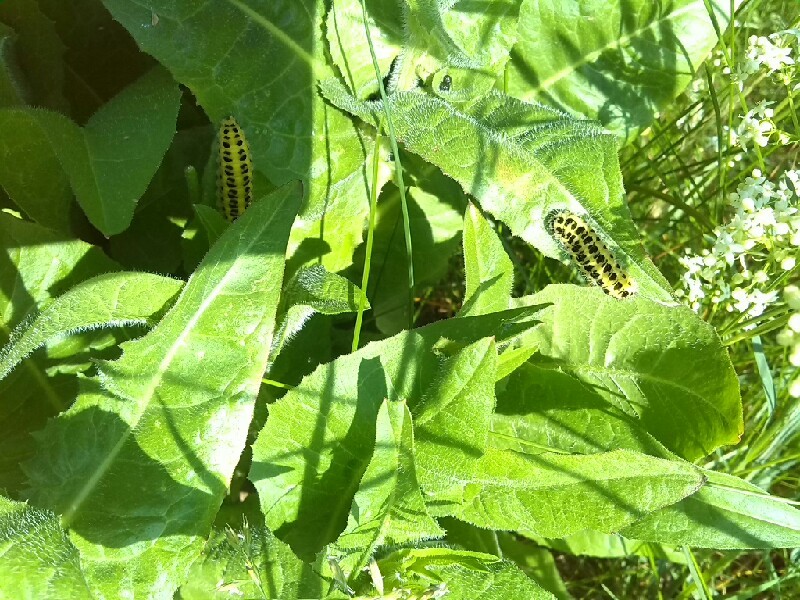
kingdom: Animalia
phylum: Arthropoda
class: Insecta
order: Lepidoptera
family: Zygaenidae
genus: Zygaena
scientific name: Zygaena filipendulae
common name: Six-spot burnet
